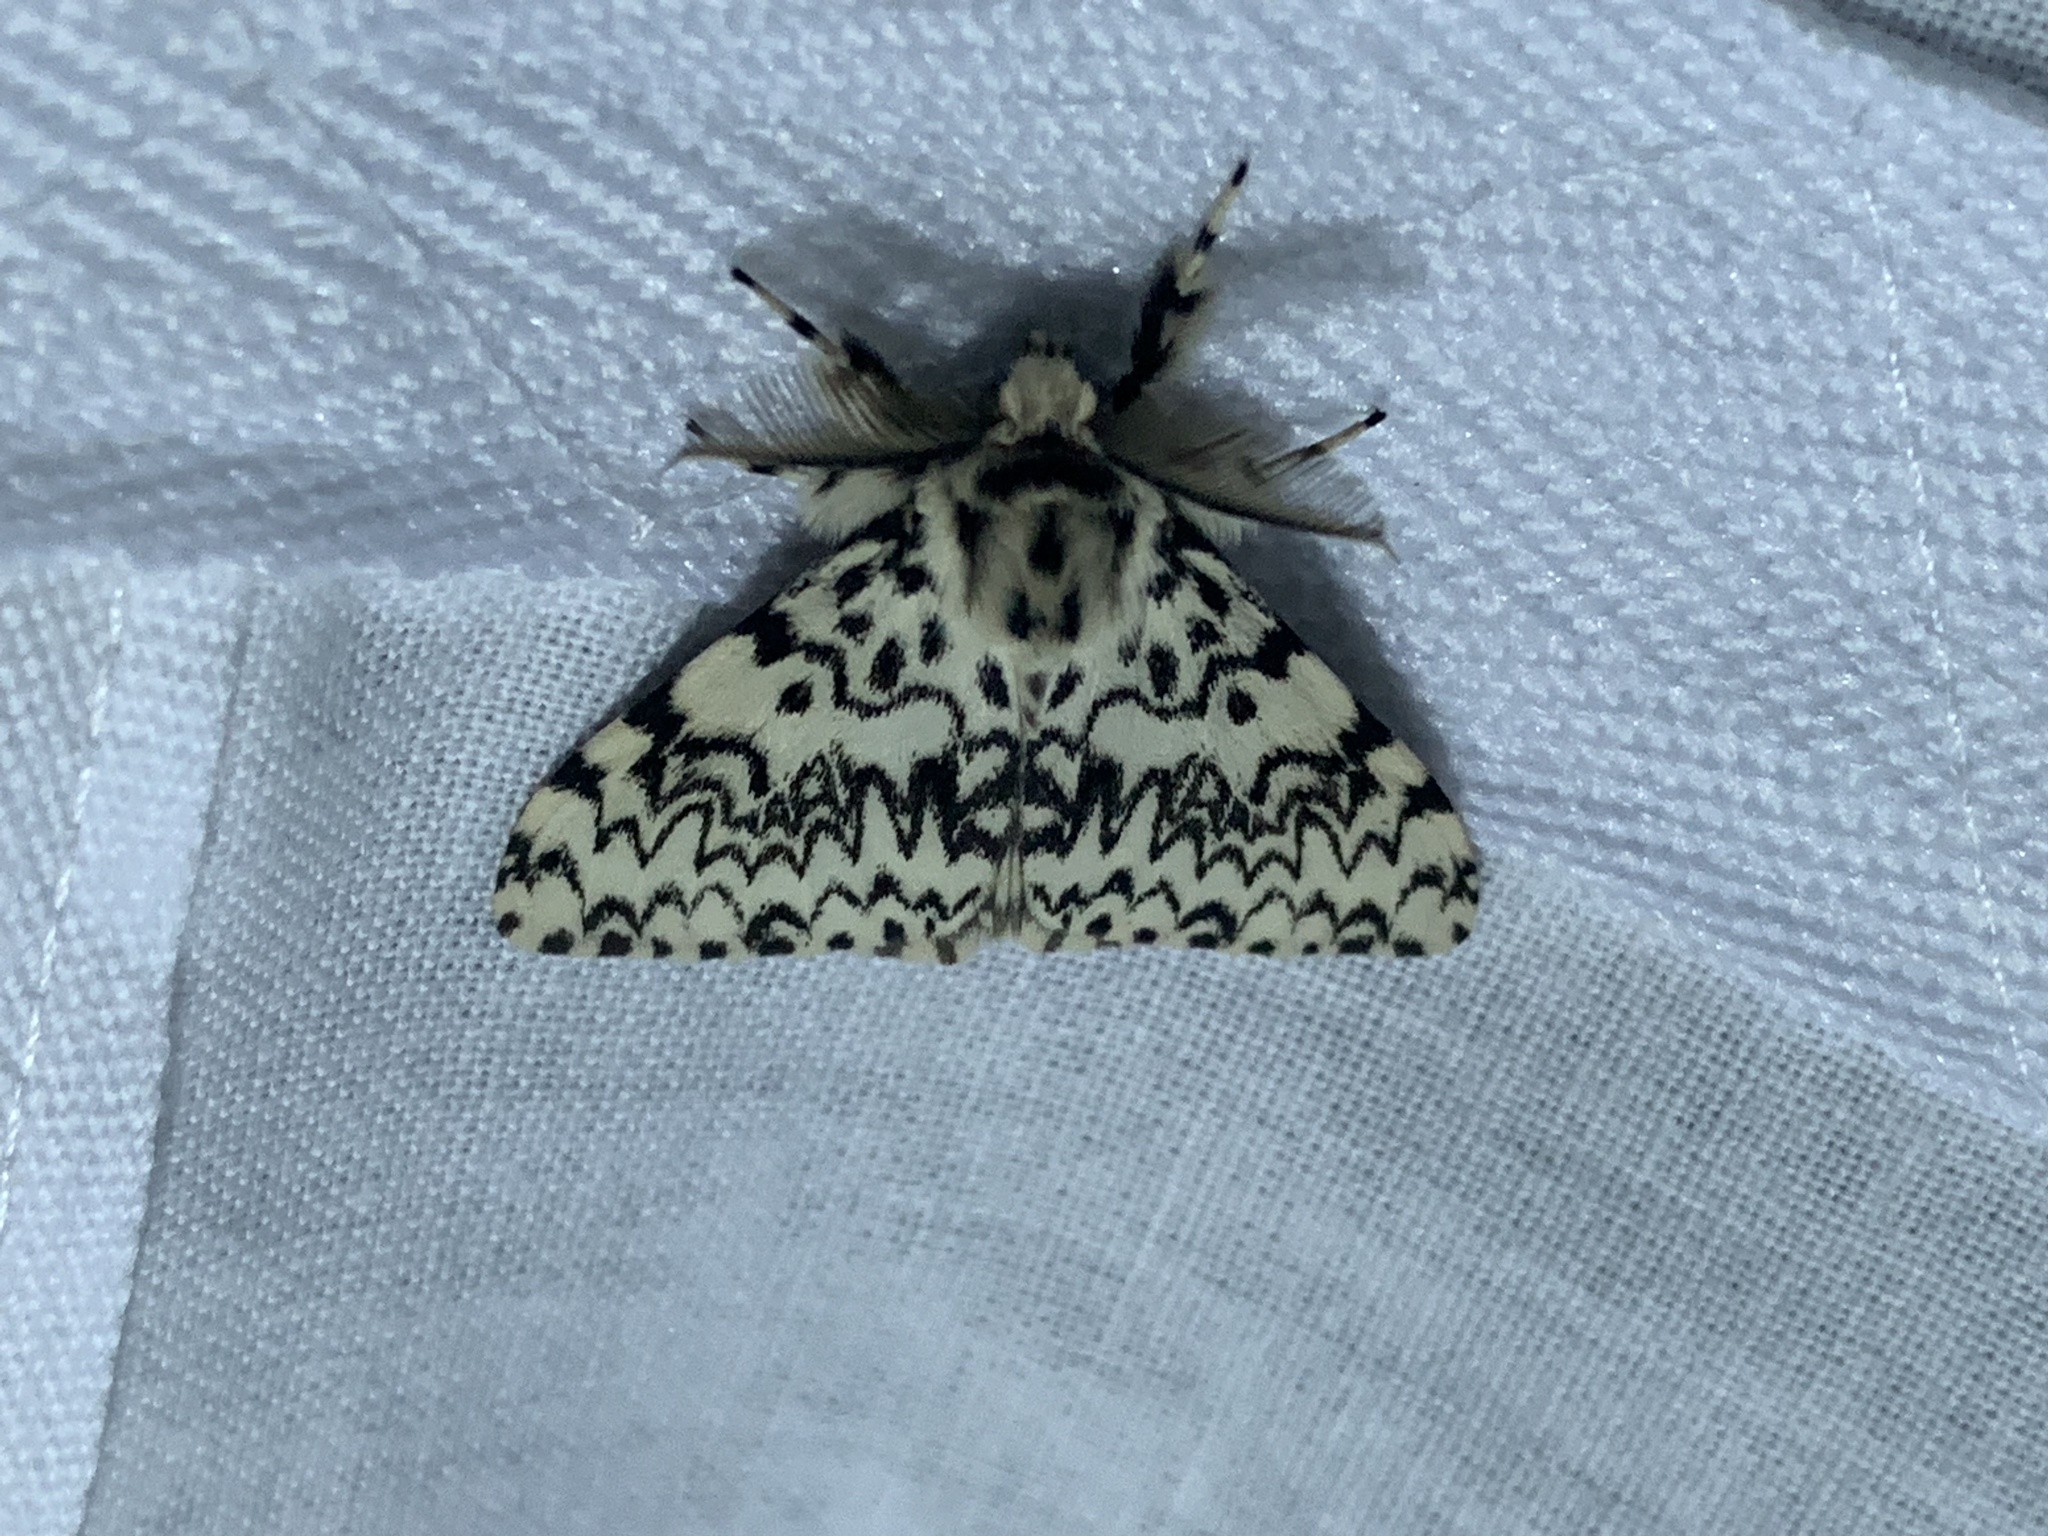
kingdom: Animalia
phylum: Arthropoda
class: Insecta
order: Lepidoptera
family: Erebidae
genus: Lymantria
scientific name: Lymantria monacha
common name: Black arches
